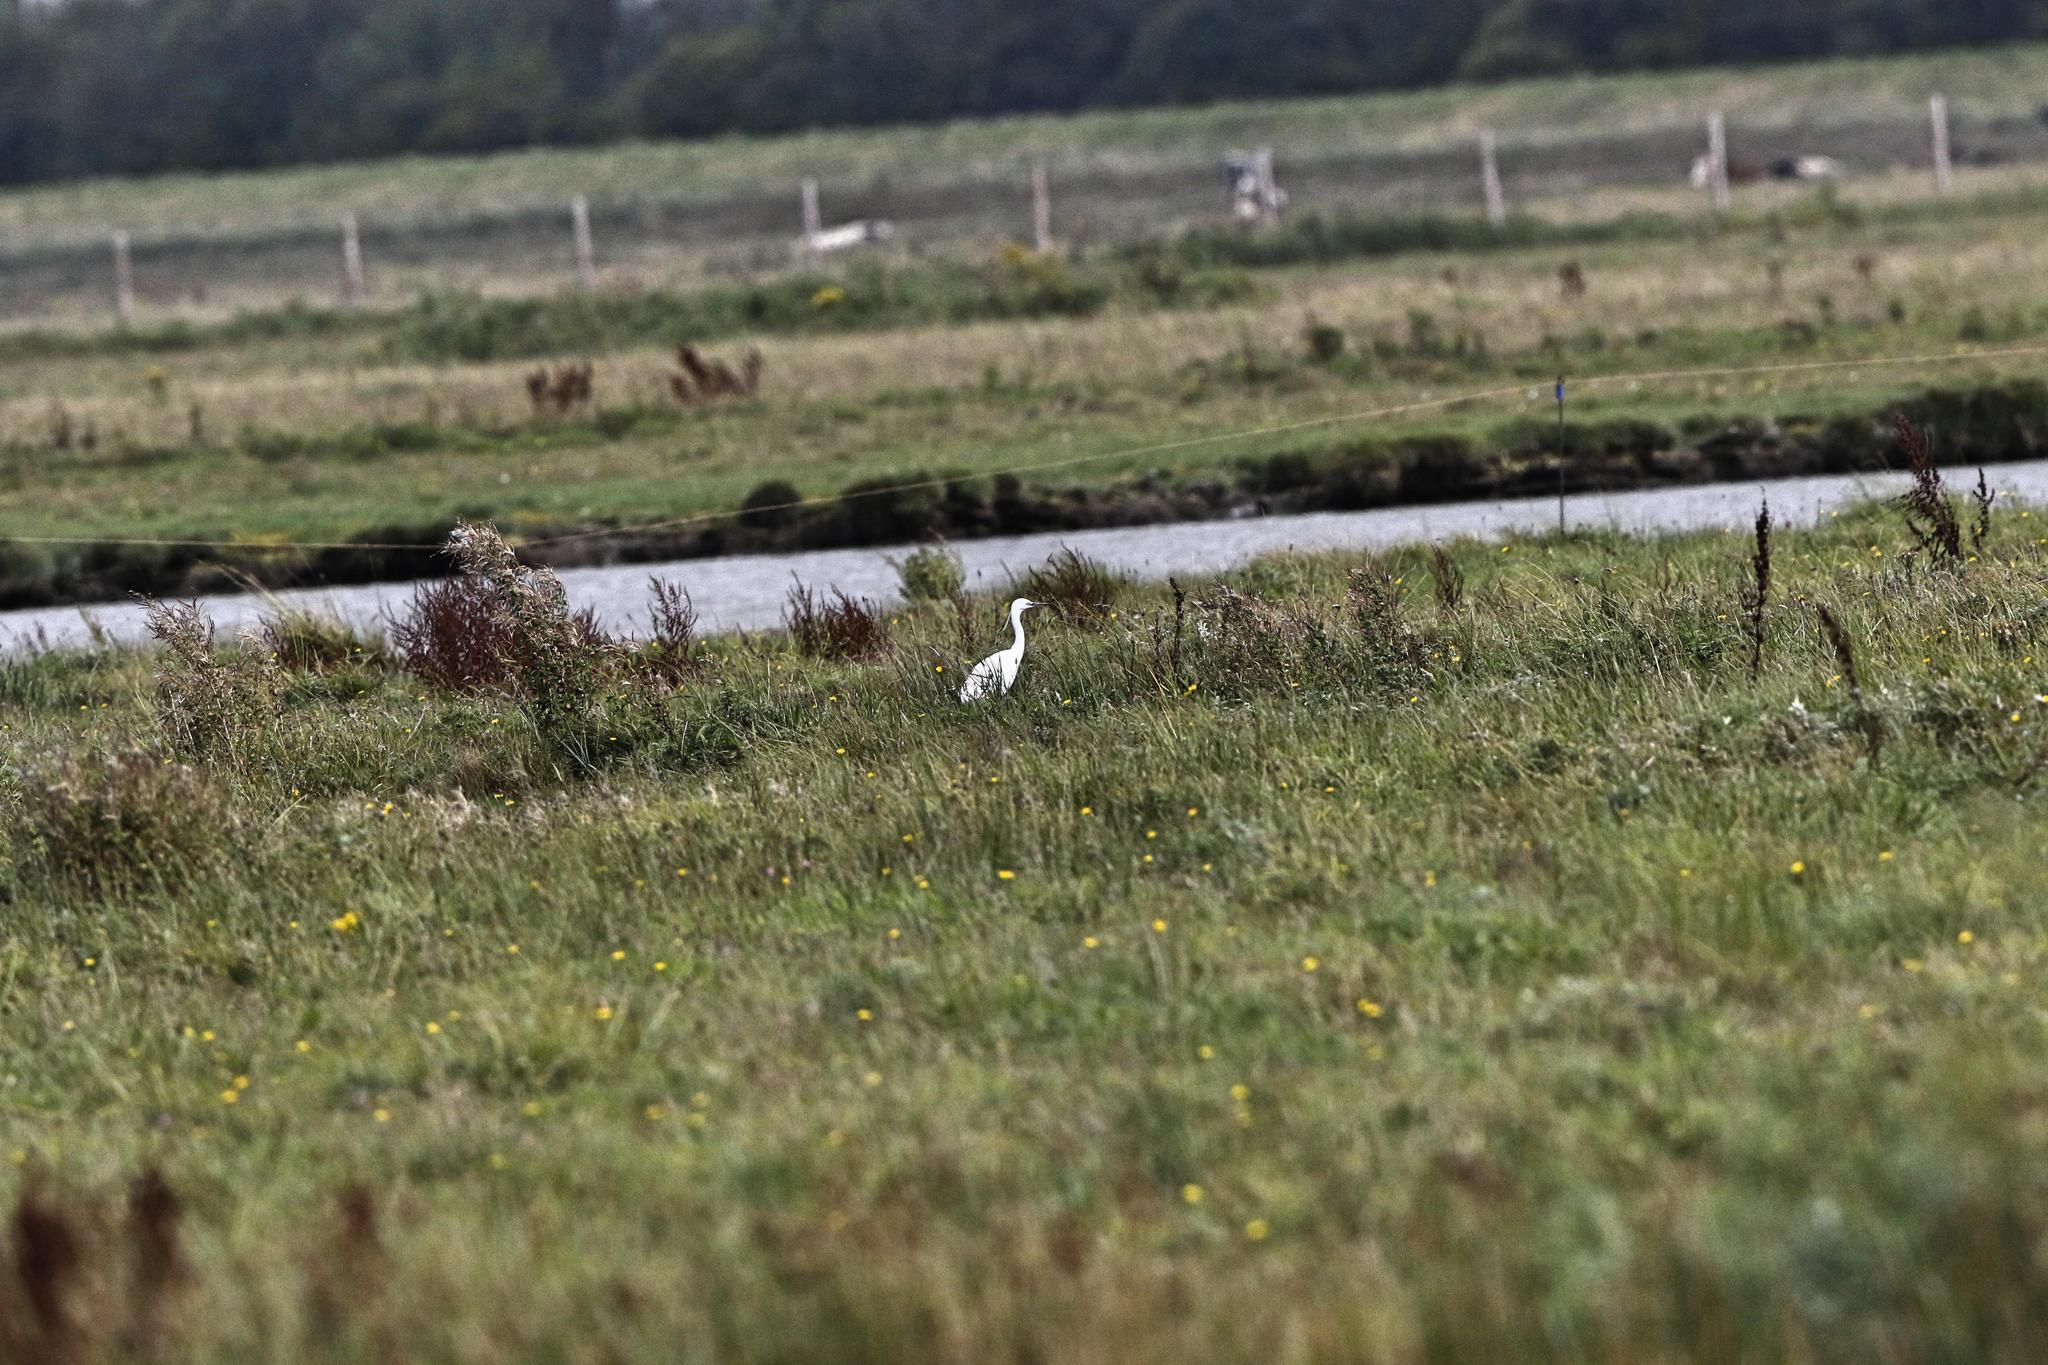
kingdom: Animalia
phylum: Chordata
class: Aves
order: Pelecaniformes
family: Ardeidae
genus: Egretta
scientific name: Egretta garzetta
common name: Little egret
